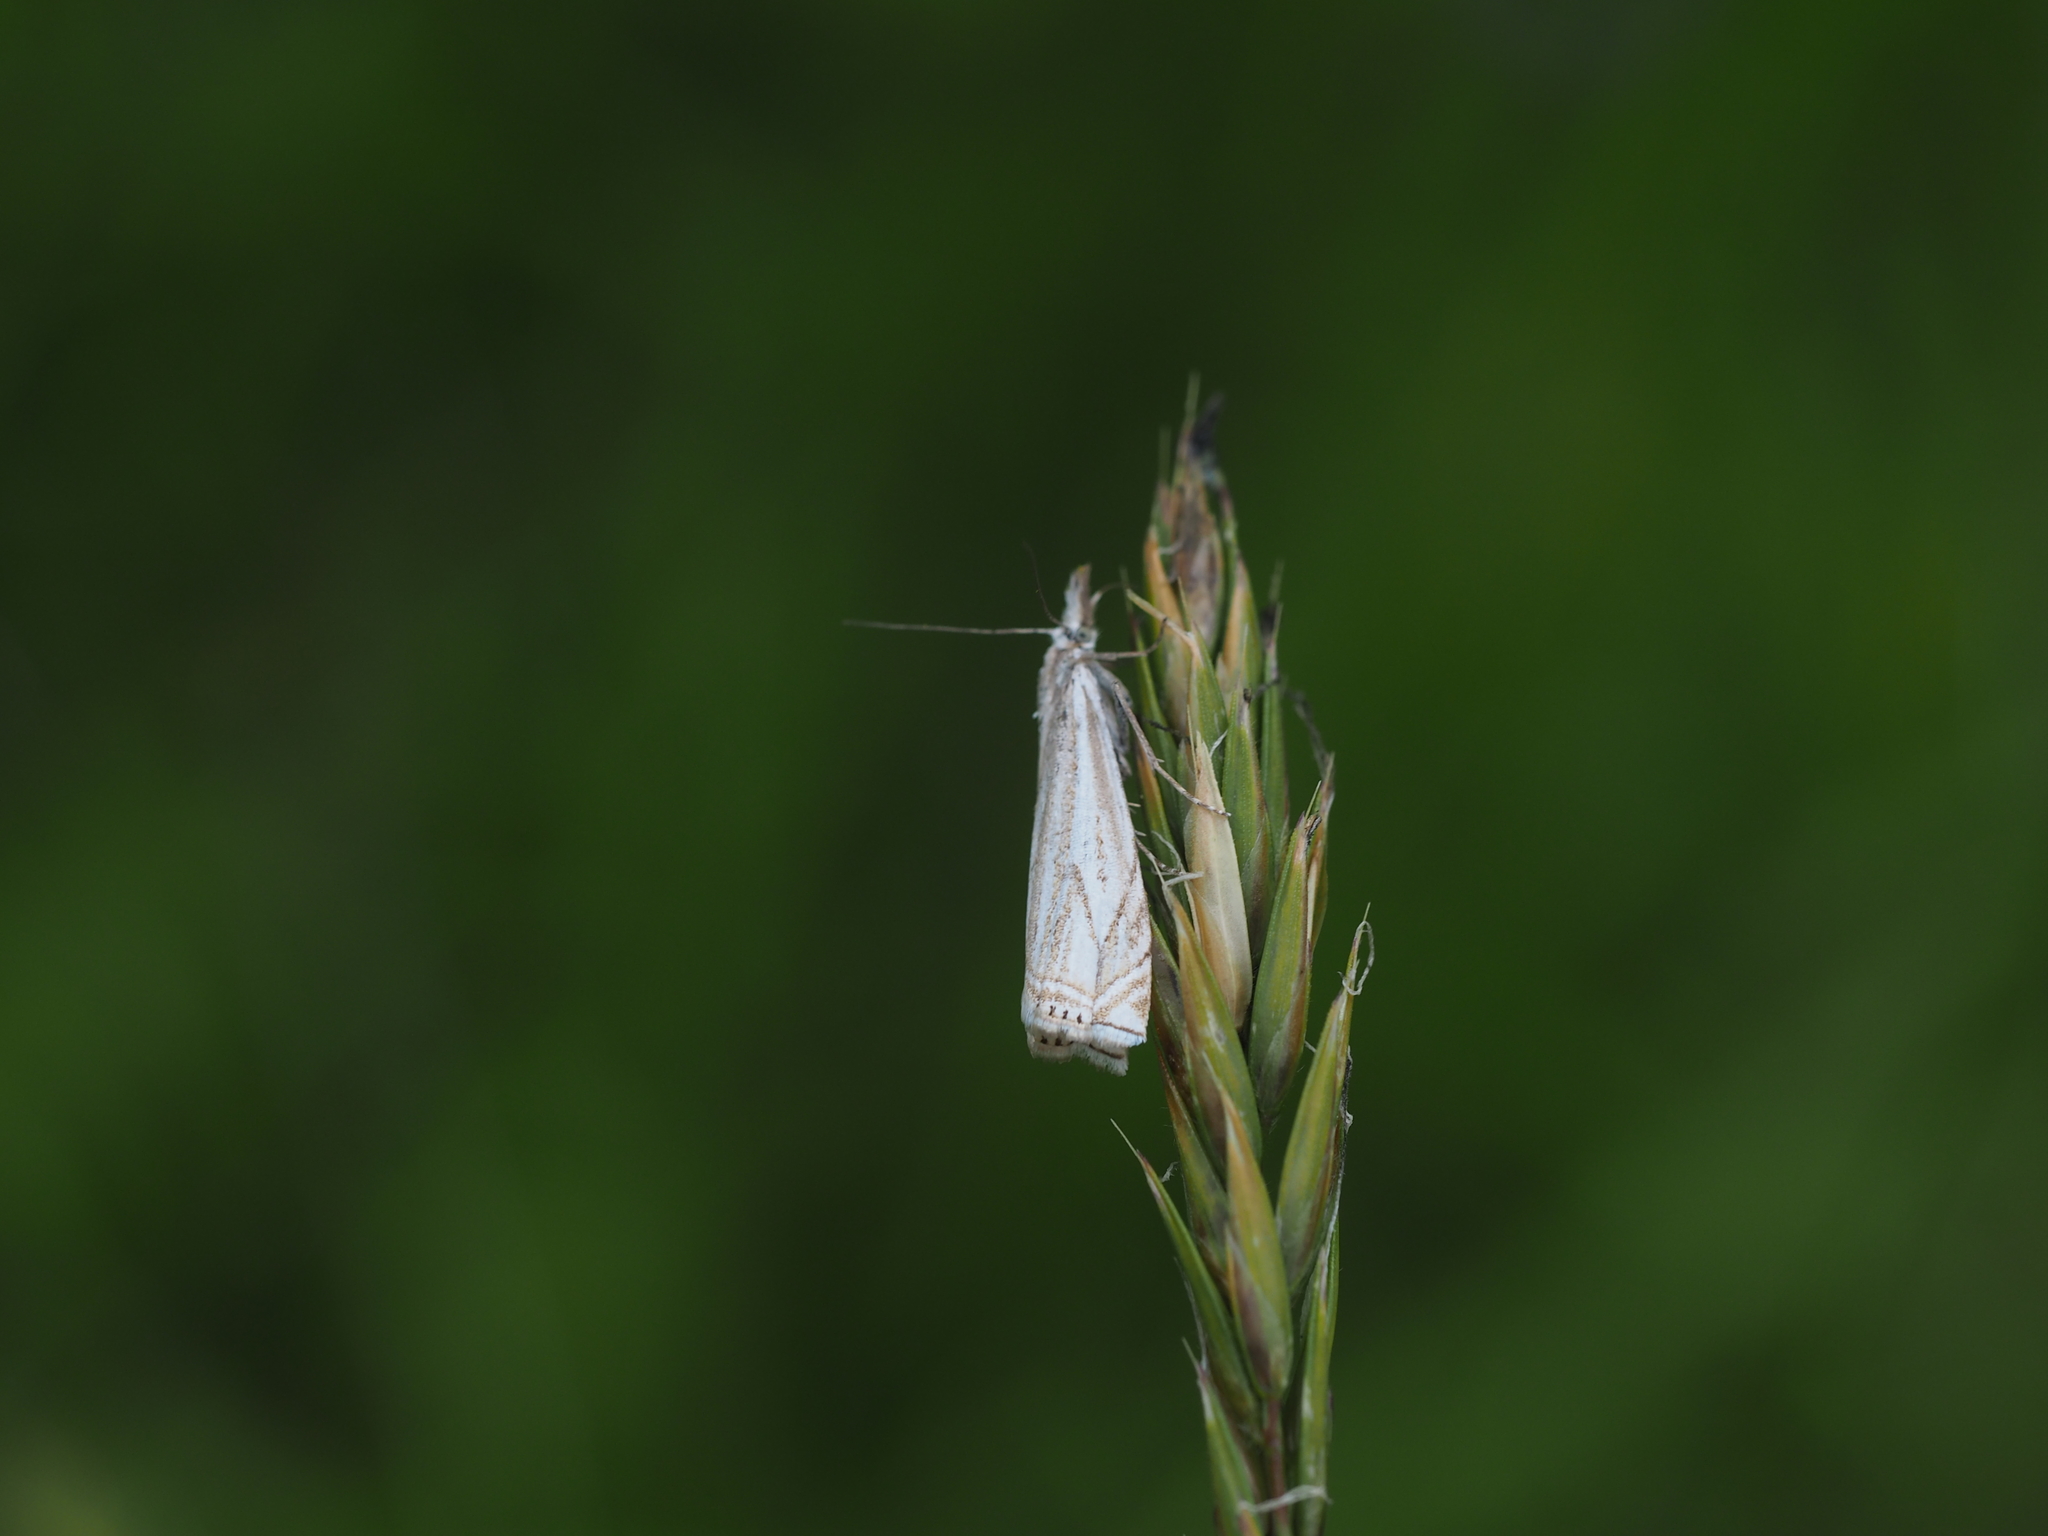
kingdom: Animalia
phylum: Arthropoda
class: Insecta
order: Lepidoptera
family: Crambidae
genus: Crambus
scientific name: Crambus nemorella
